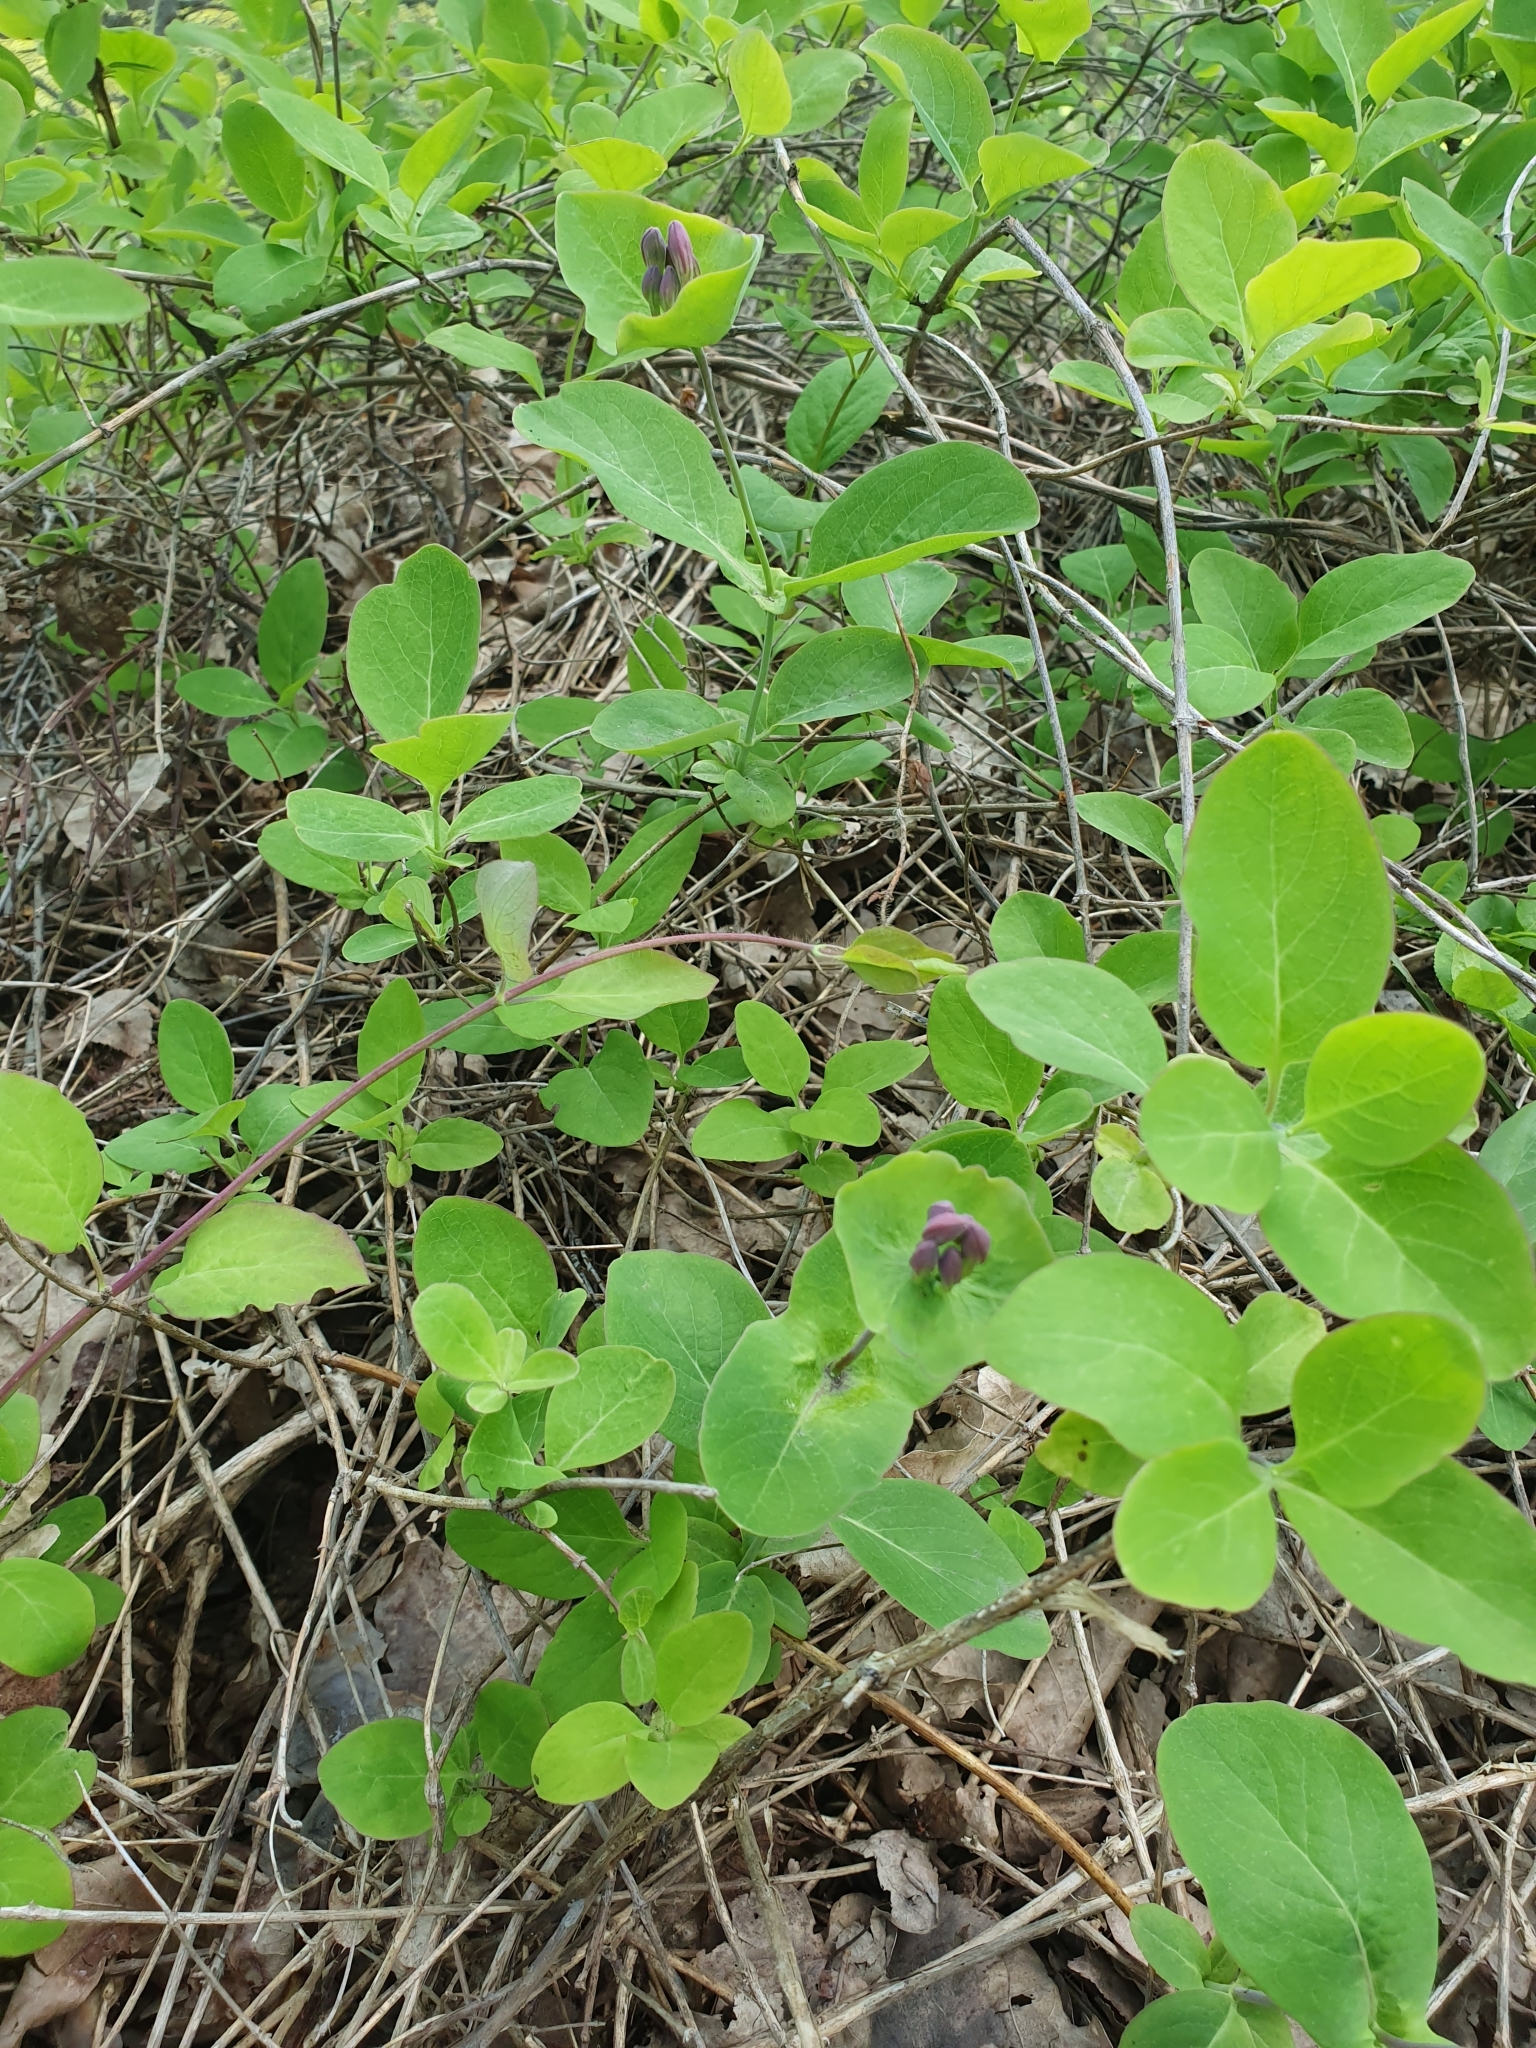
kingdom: Plantae
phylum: Tracheophyta
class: Magnoliopsida
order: Dipsacales
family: Caprifoliaceae
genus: Lonicera
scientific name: Lonicera caprifolium
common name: Perfoliate honeysuckle
